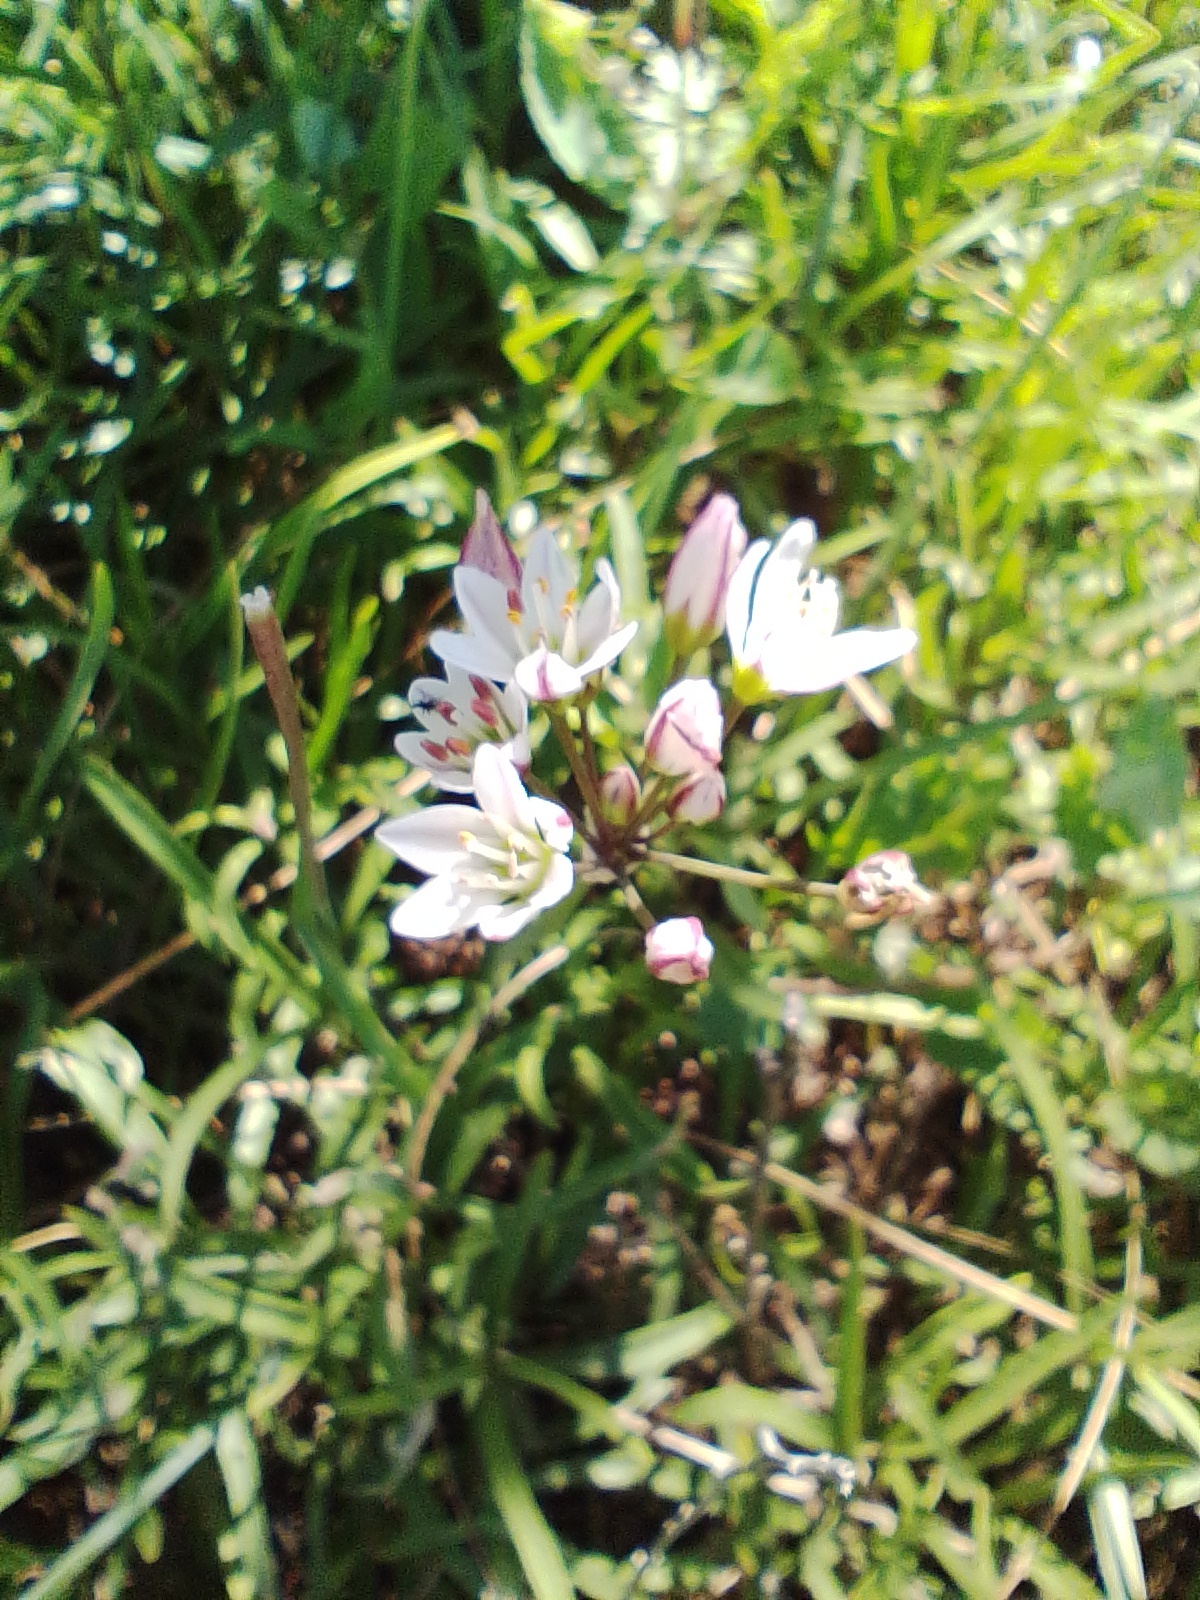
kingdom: Plantae
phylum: Tracheophyta
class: Liliopsida
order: Asparagales
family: Amaryllidaceae
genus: Nothoscordum
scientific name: Nothoscordum gracile
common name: Slender false garlic
